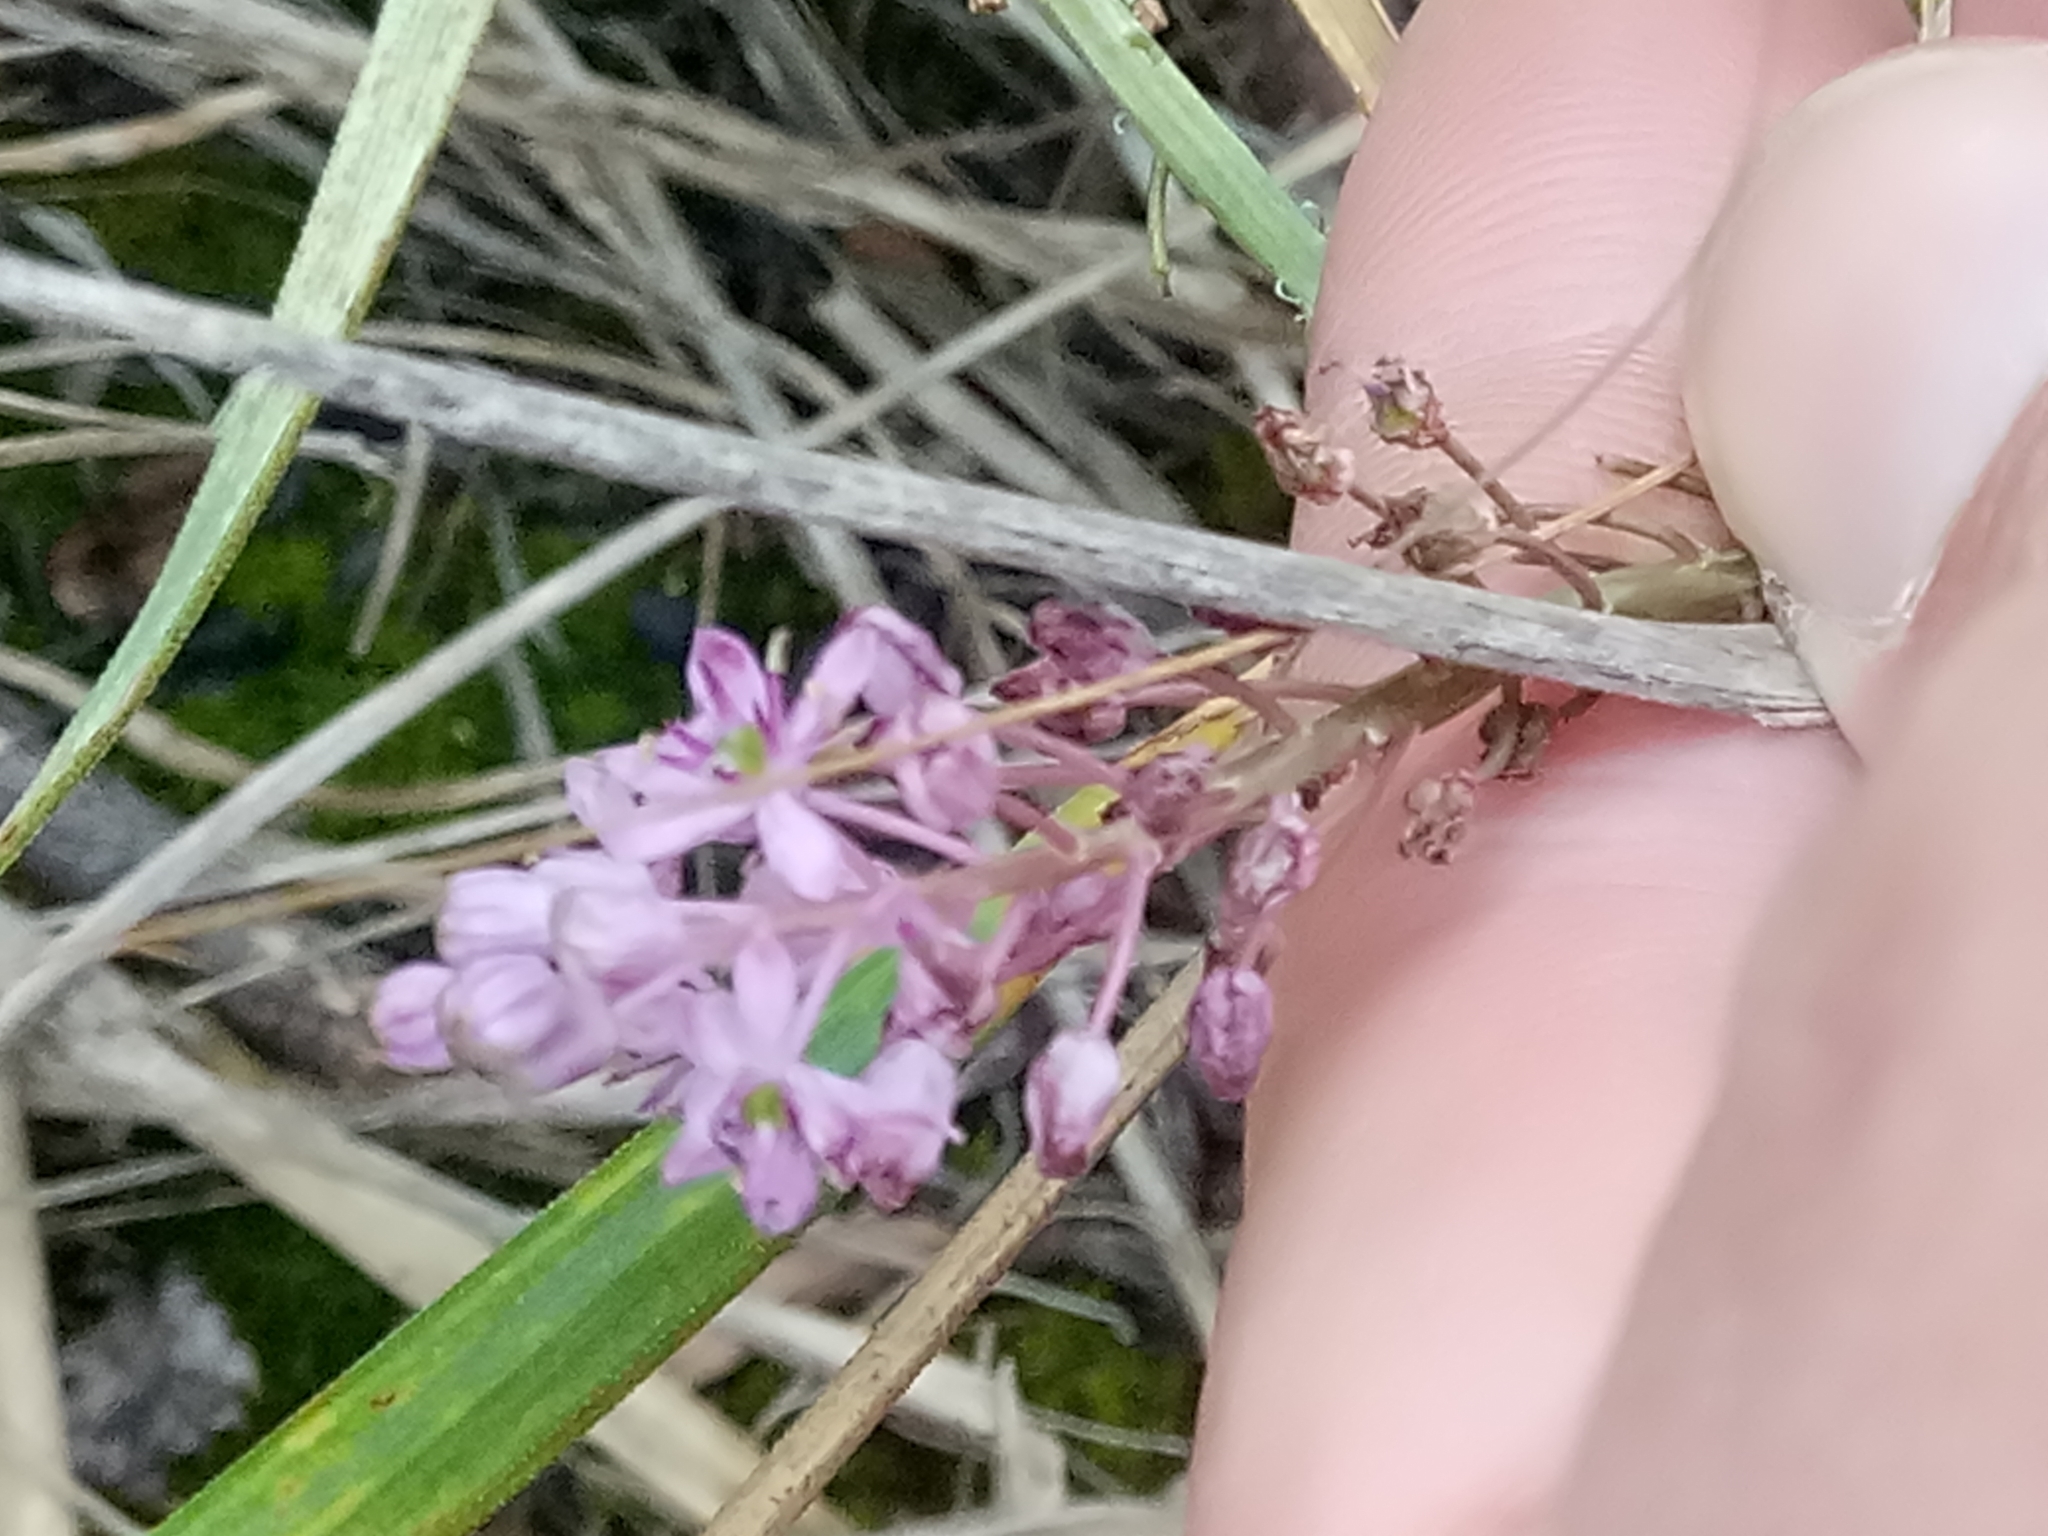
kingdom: Plantae
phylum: Tracheophyta
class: Liliopsida
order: Asparagales
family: Asparagaceae
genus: Barnardia
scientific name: Barnardia numidica
